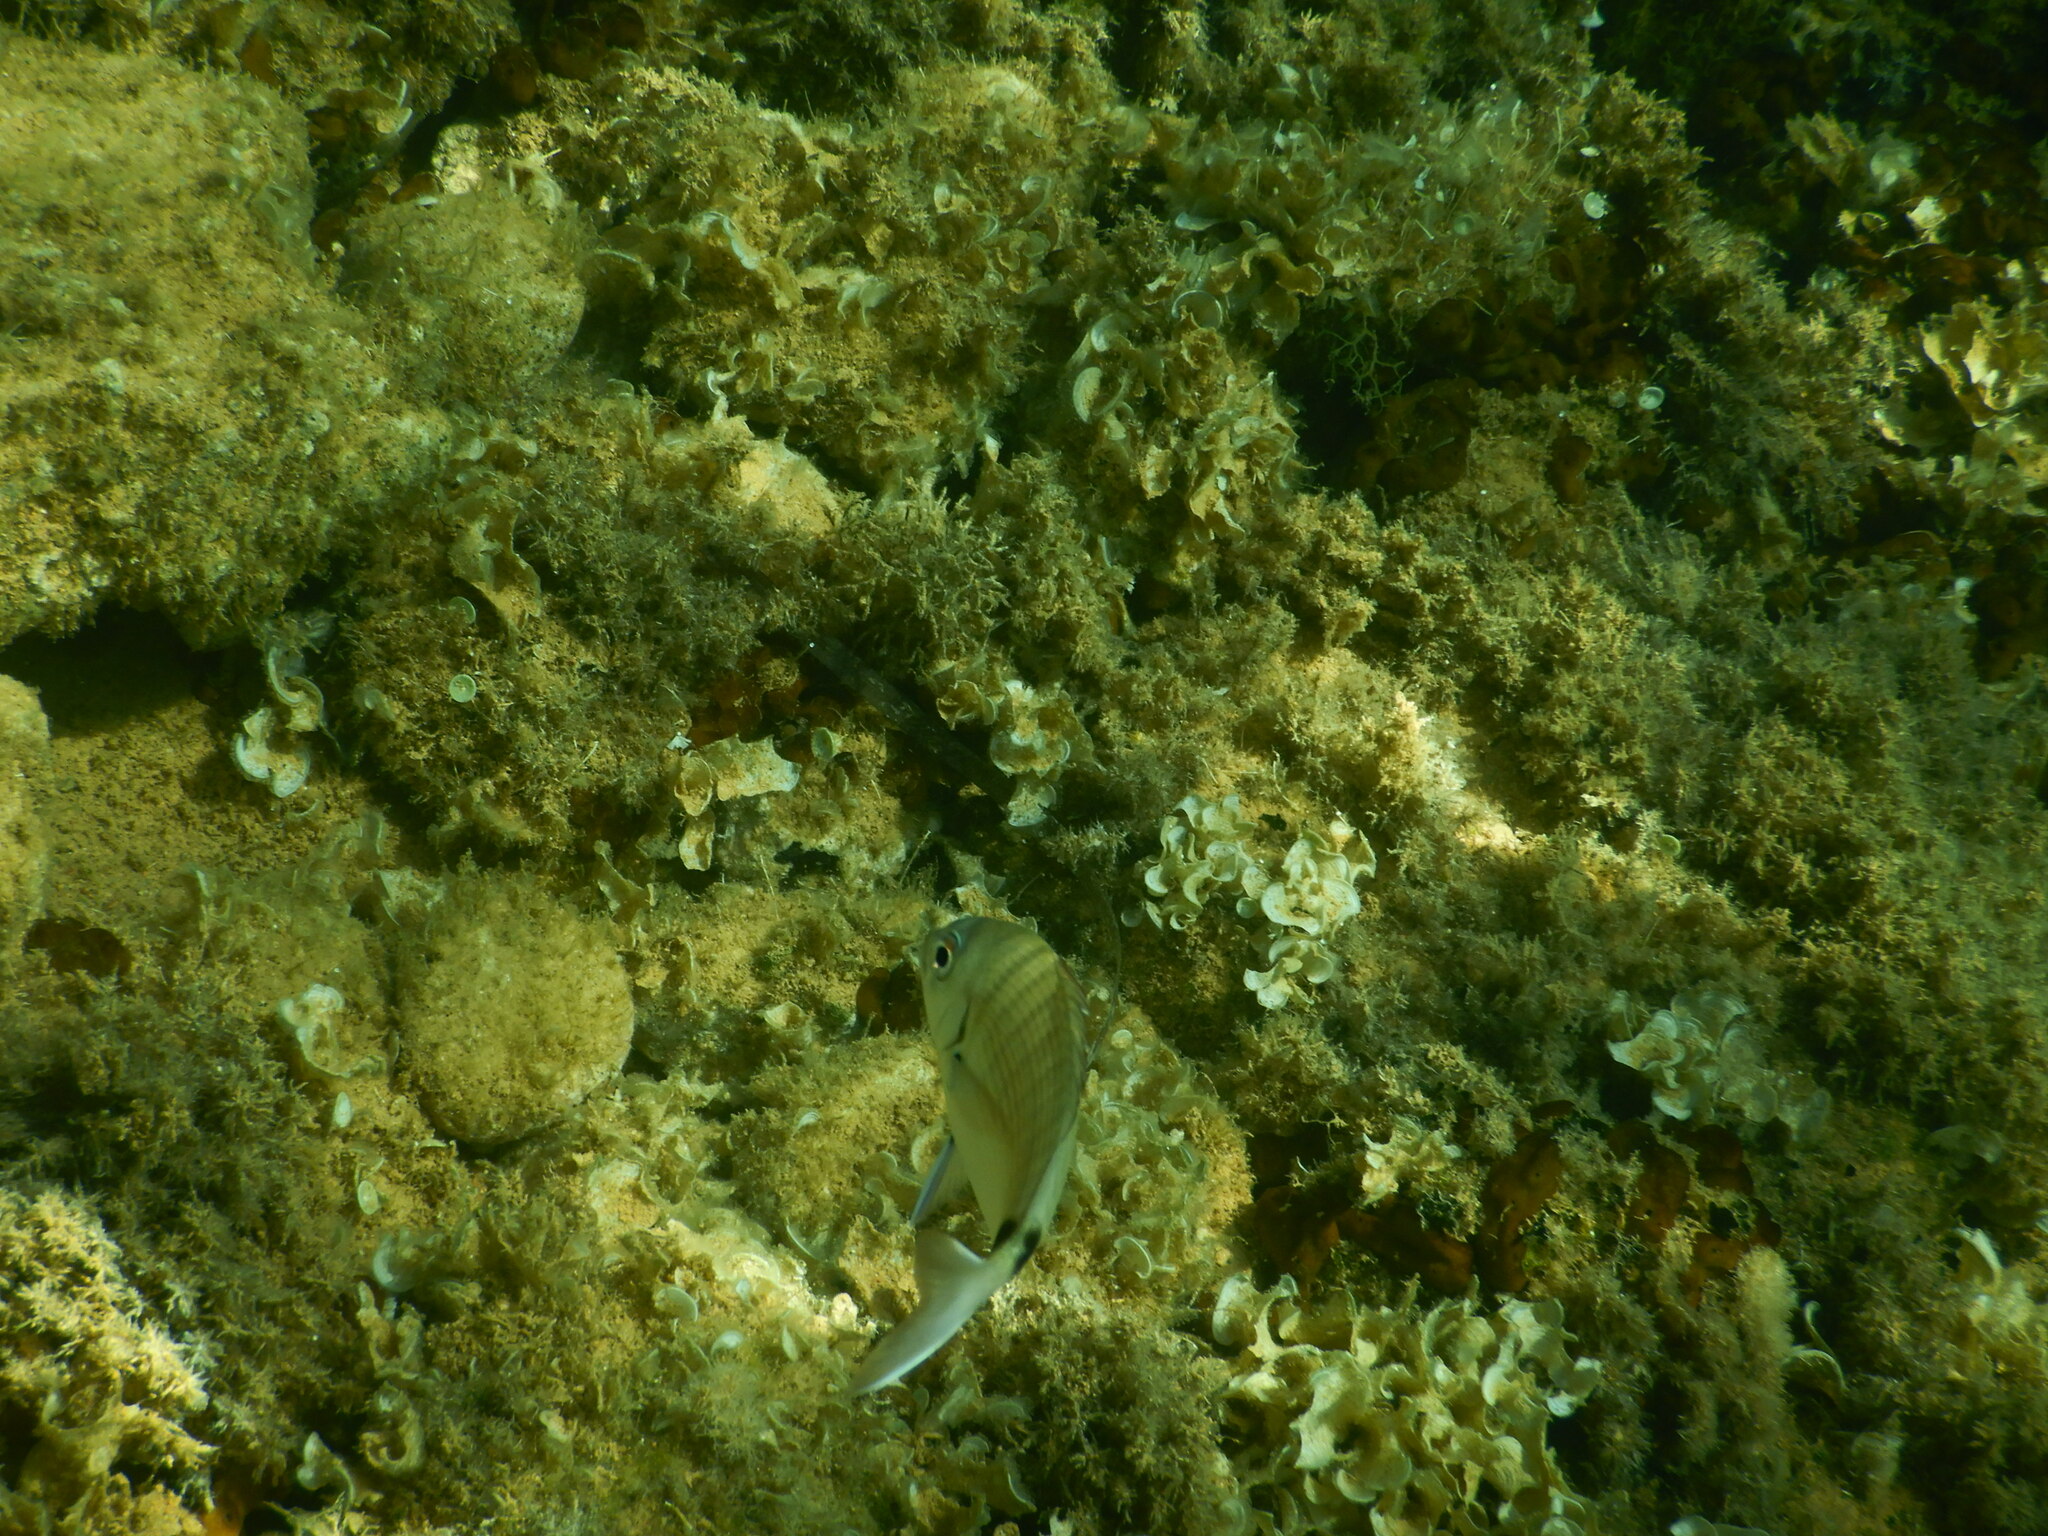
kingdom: Animalia
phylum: Chordata
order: Perciformes
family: Sparidae
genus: Diplodus
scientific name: Diplodus sargus
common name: White seabream
